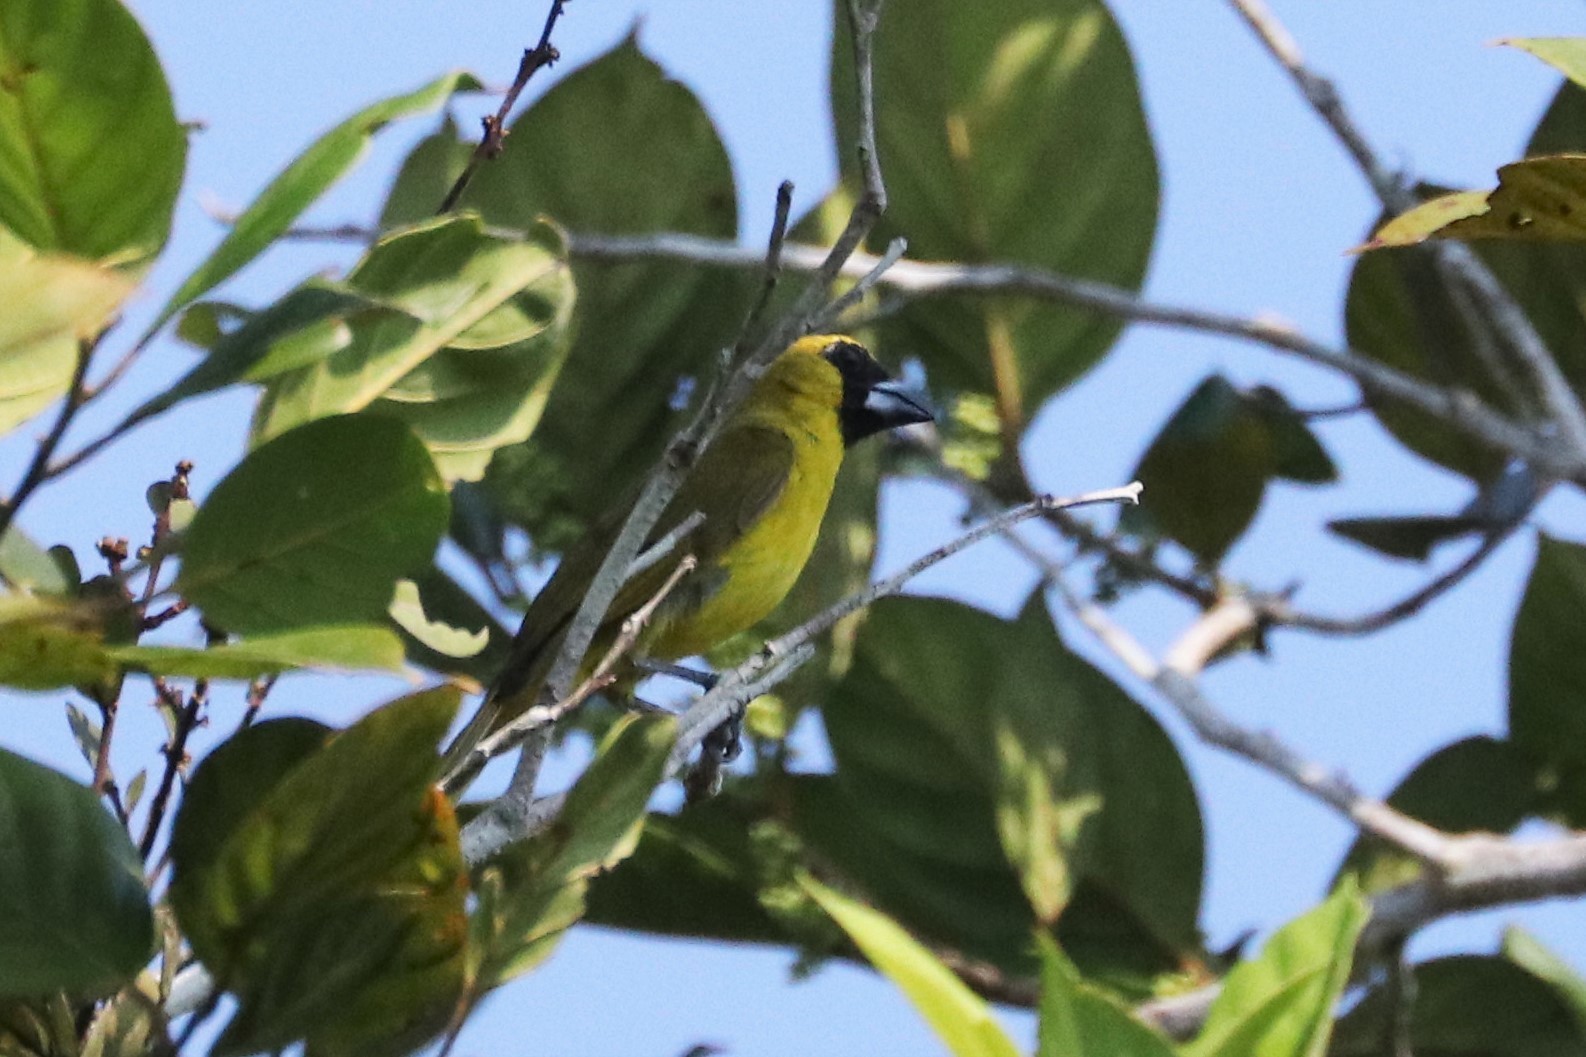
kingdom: Animalia
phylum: Chordata
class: Aves
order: Passeriformes
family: Cardinalidae
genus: Caryothraustes
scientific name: Caryothraustes canadensis
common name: Yellow-green grosbeak
